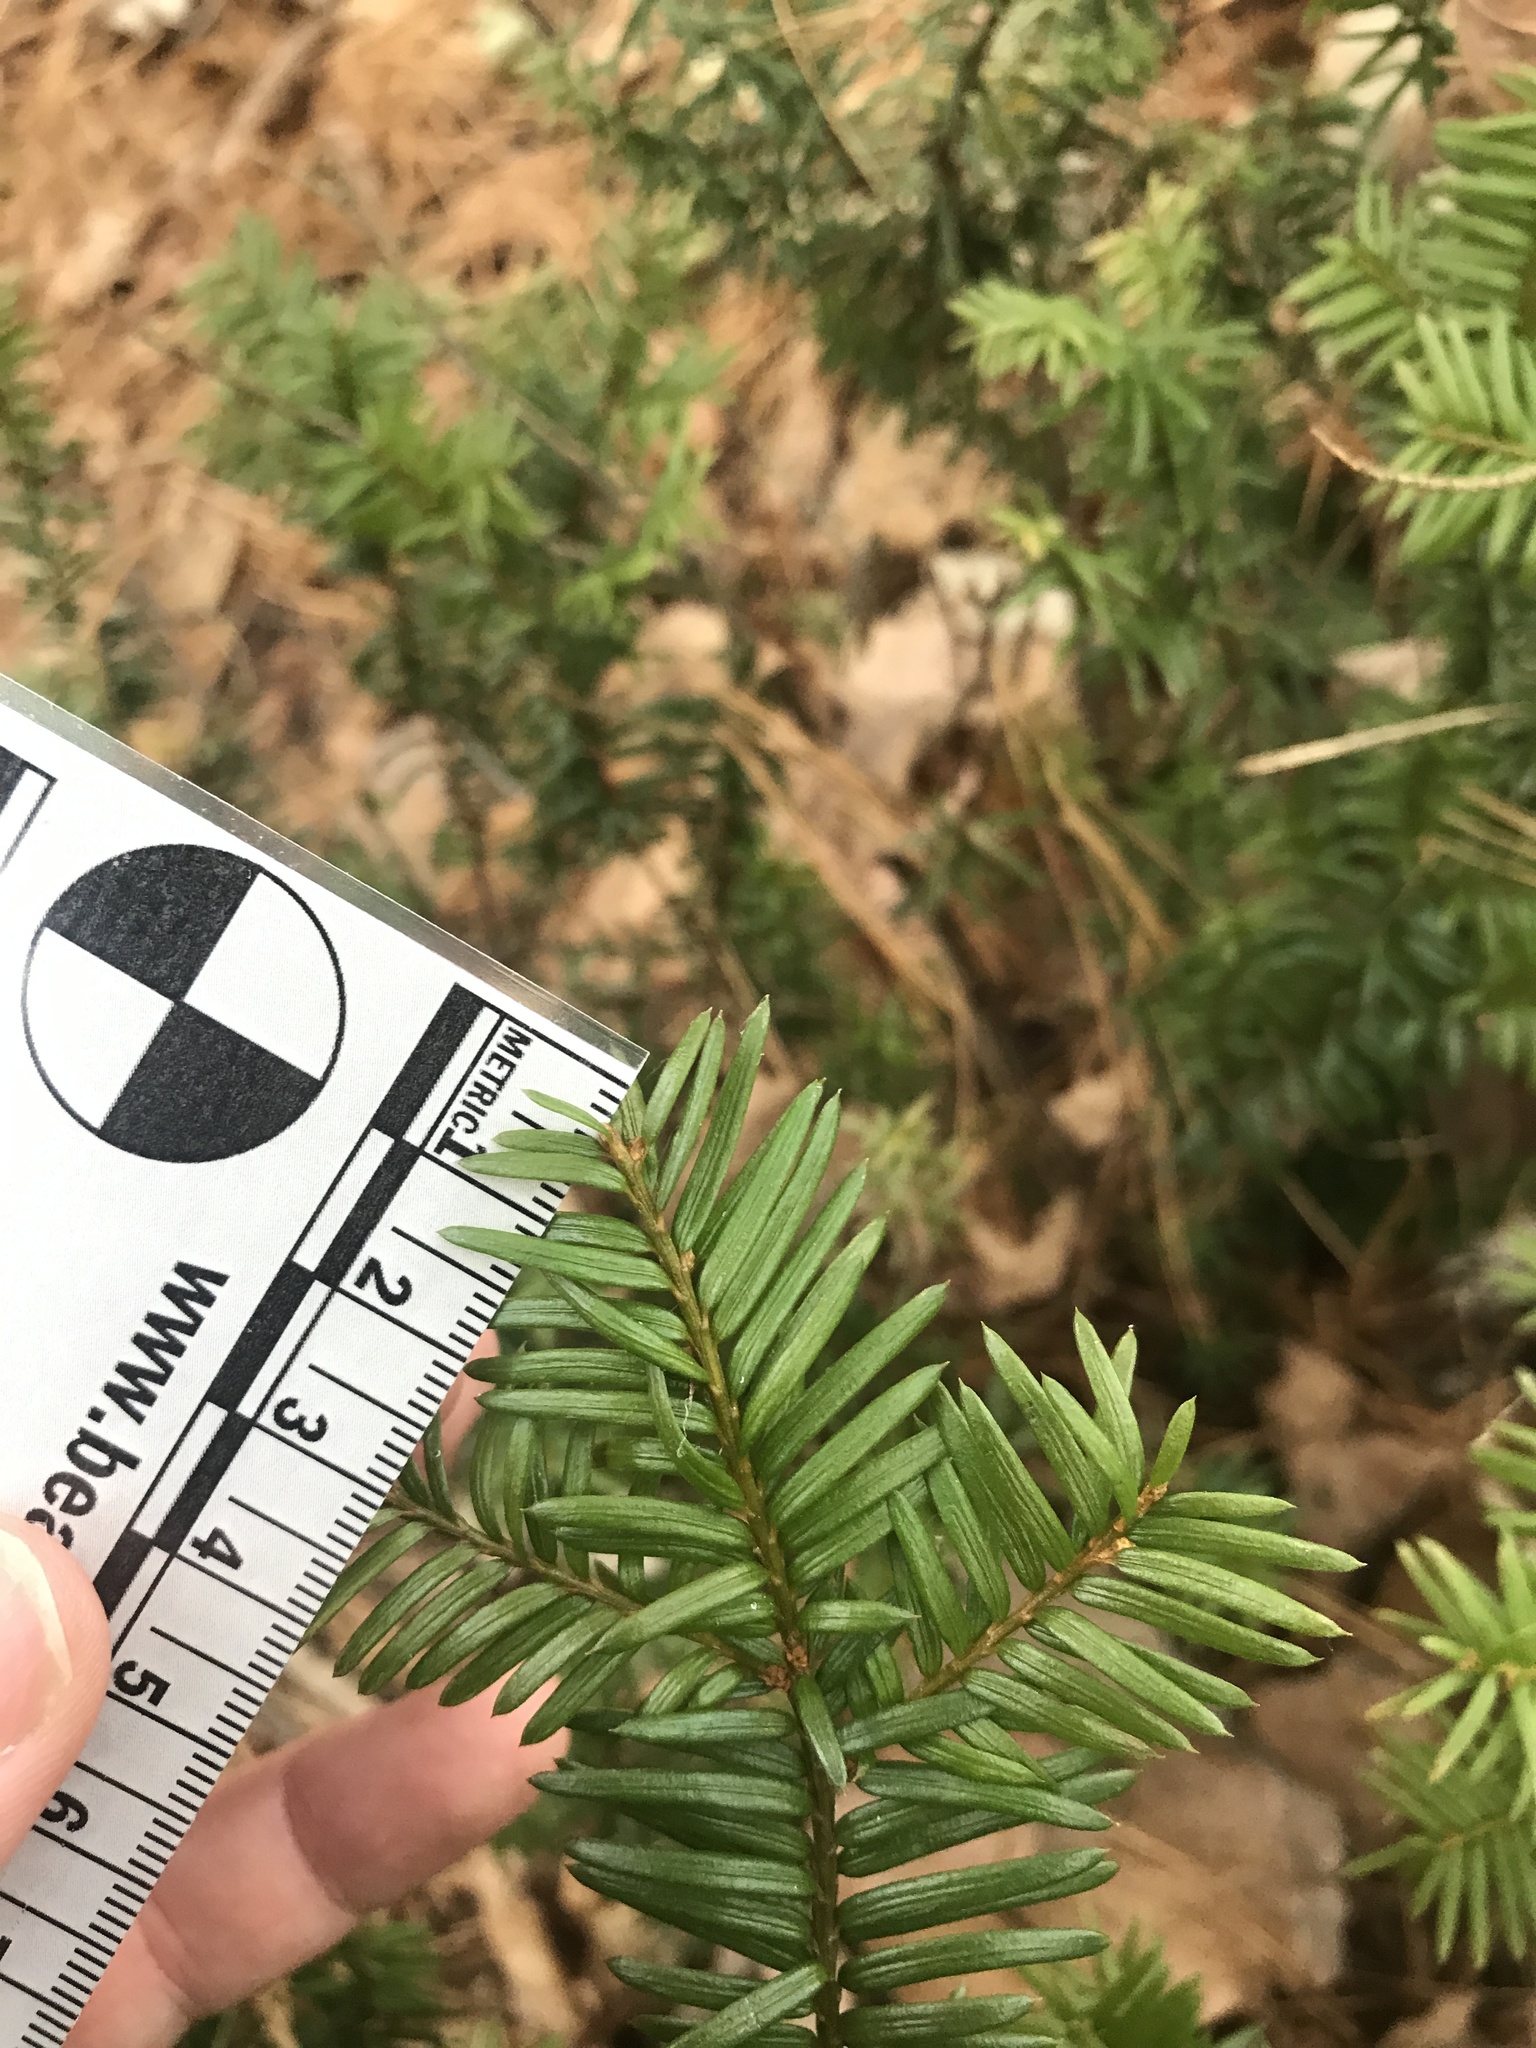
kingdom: Plantae
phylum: Tracheophyta
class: Pinopsida
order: Pinales
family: Taxaceae
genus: Taxus
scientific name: Taxus canadensis
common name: American yew
